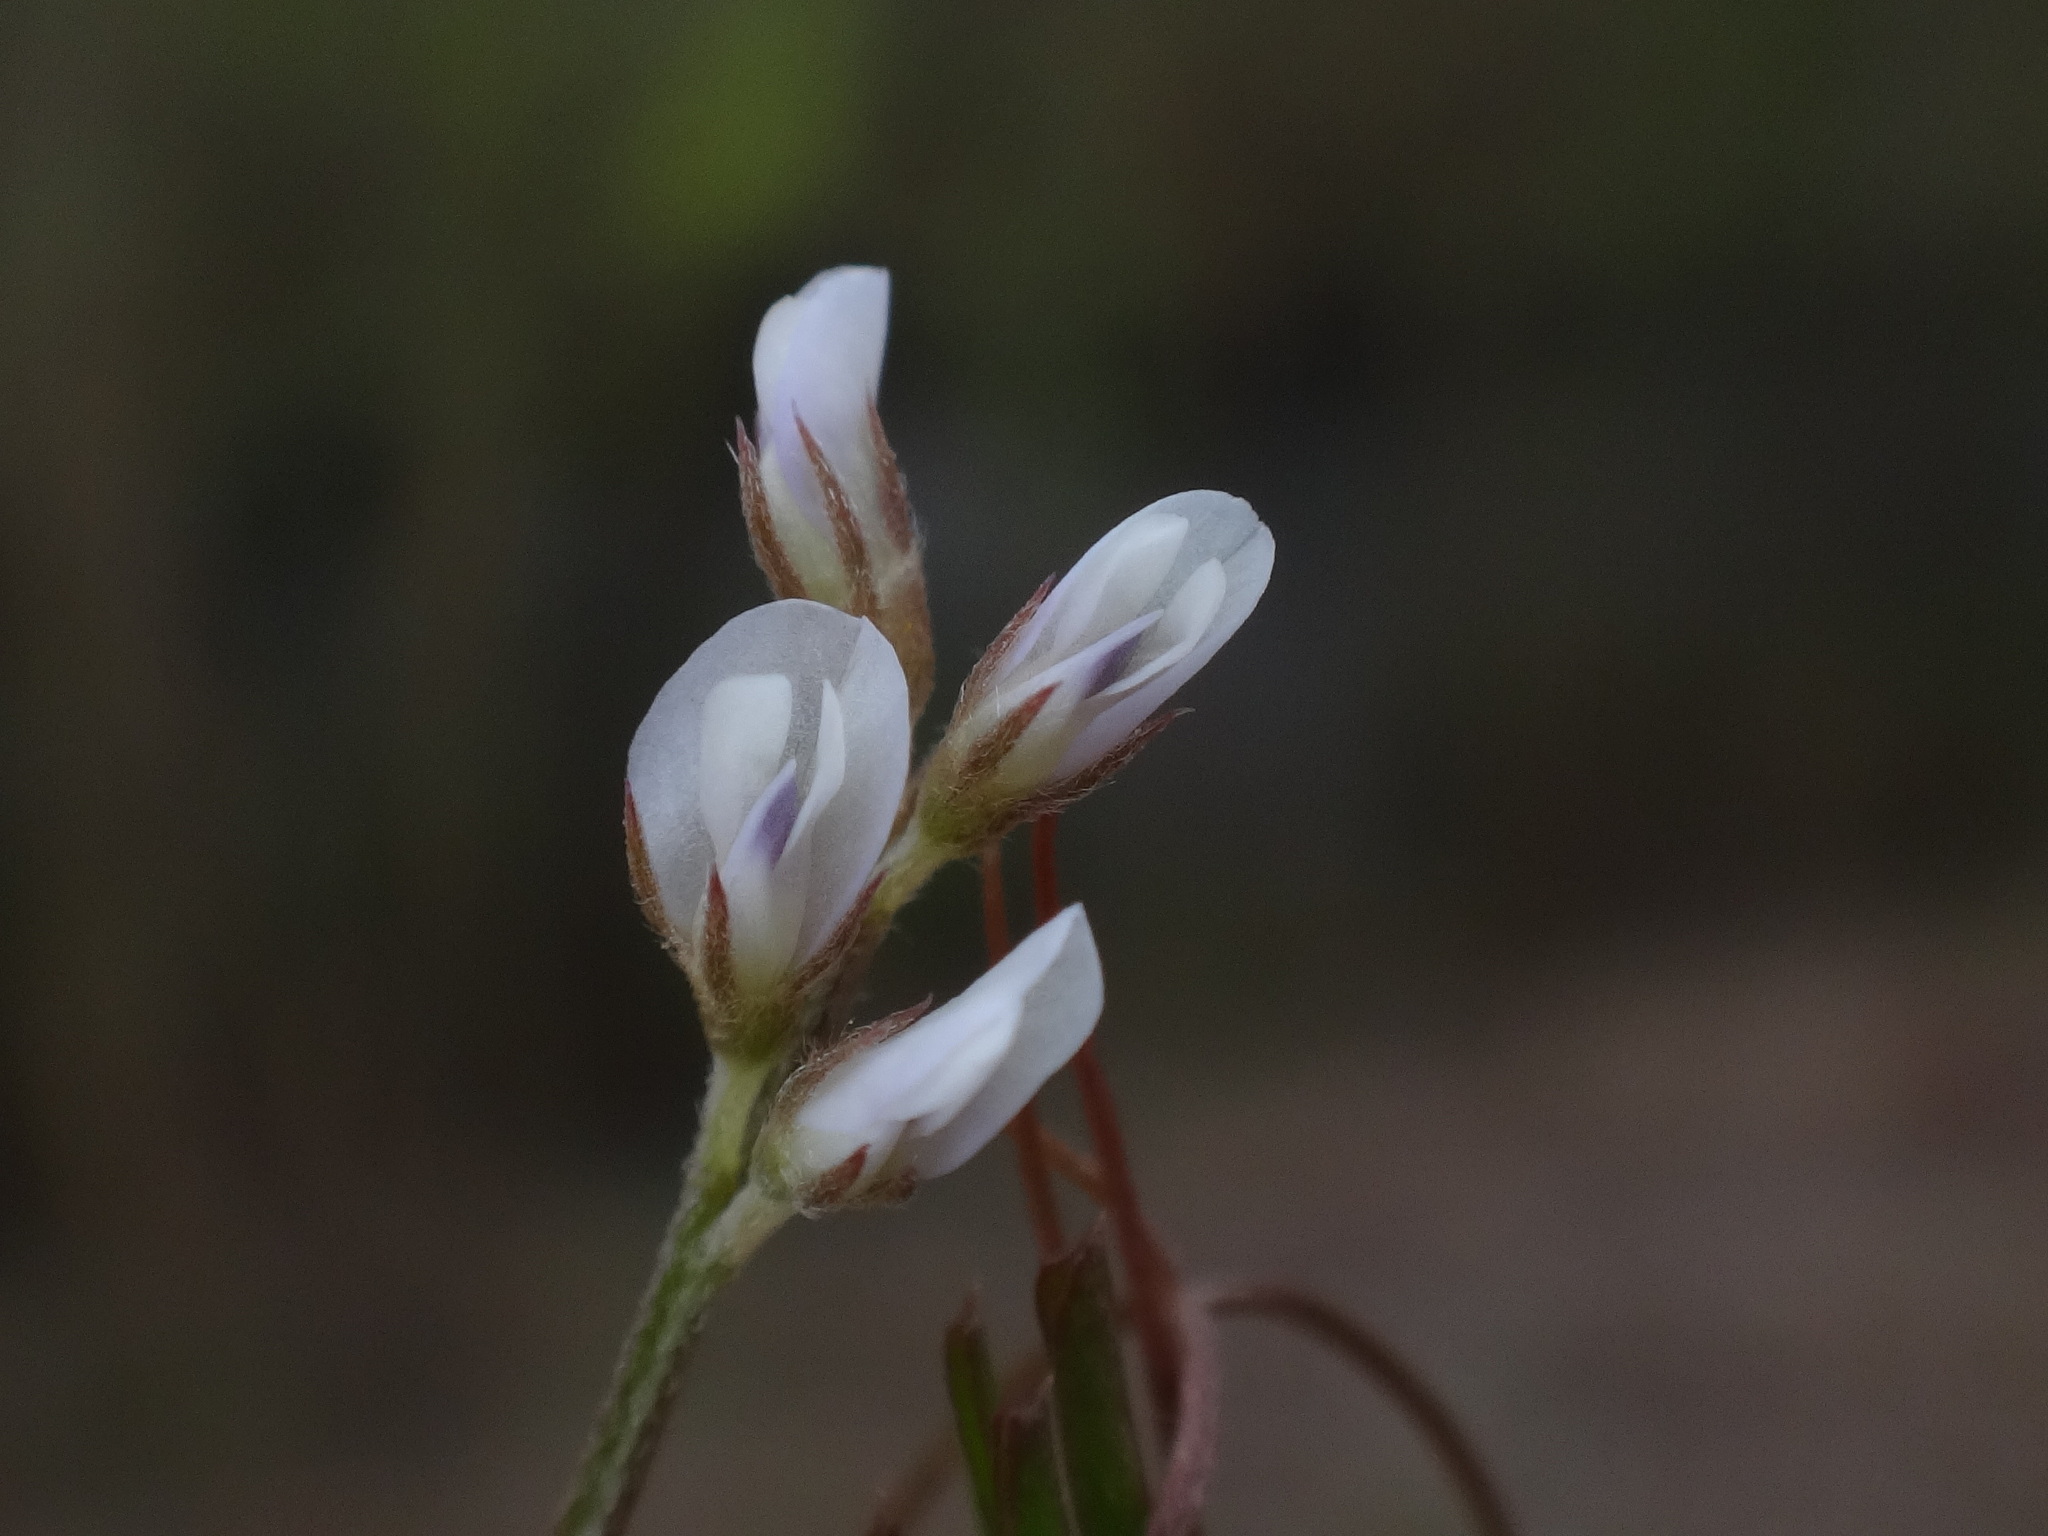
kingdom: Plantae
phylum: Tracheophyta
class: Magnoliopsida
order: Fabales
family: Fabaceae
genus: Vicia
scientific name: Vicia hirsuta
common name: Tiny vetch
